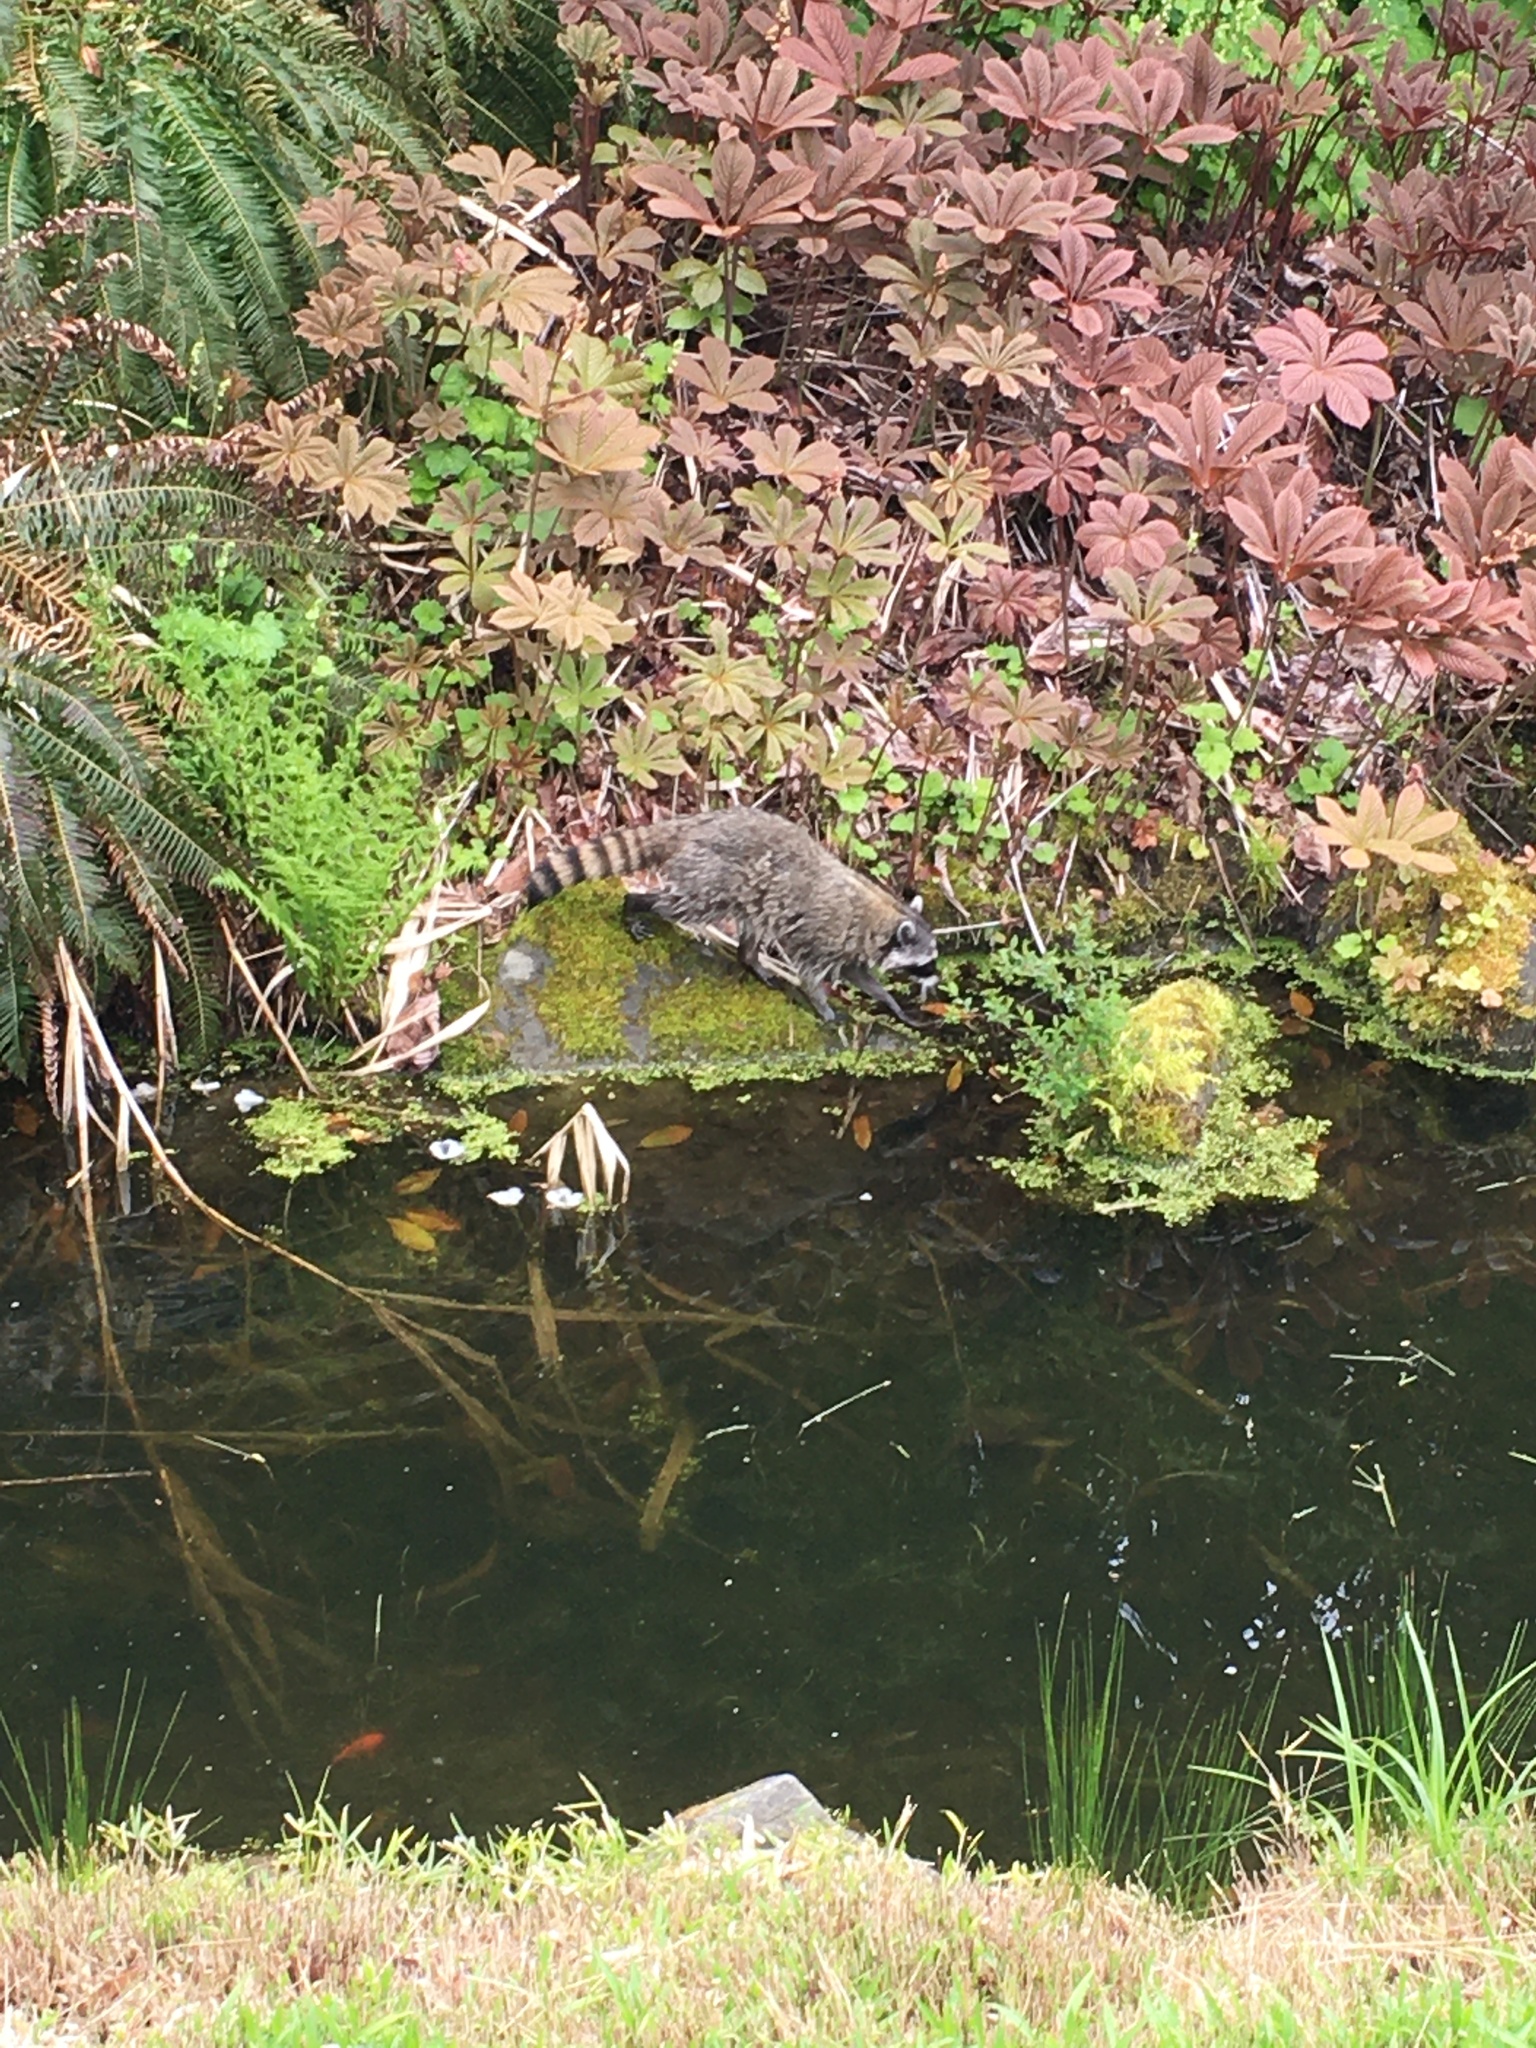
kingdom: Animalia
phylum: Chordata
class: Mammalia
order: Carnivora
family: Procyonidae
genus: Procyon
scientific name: Procyon lotor
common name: Raccoon
